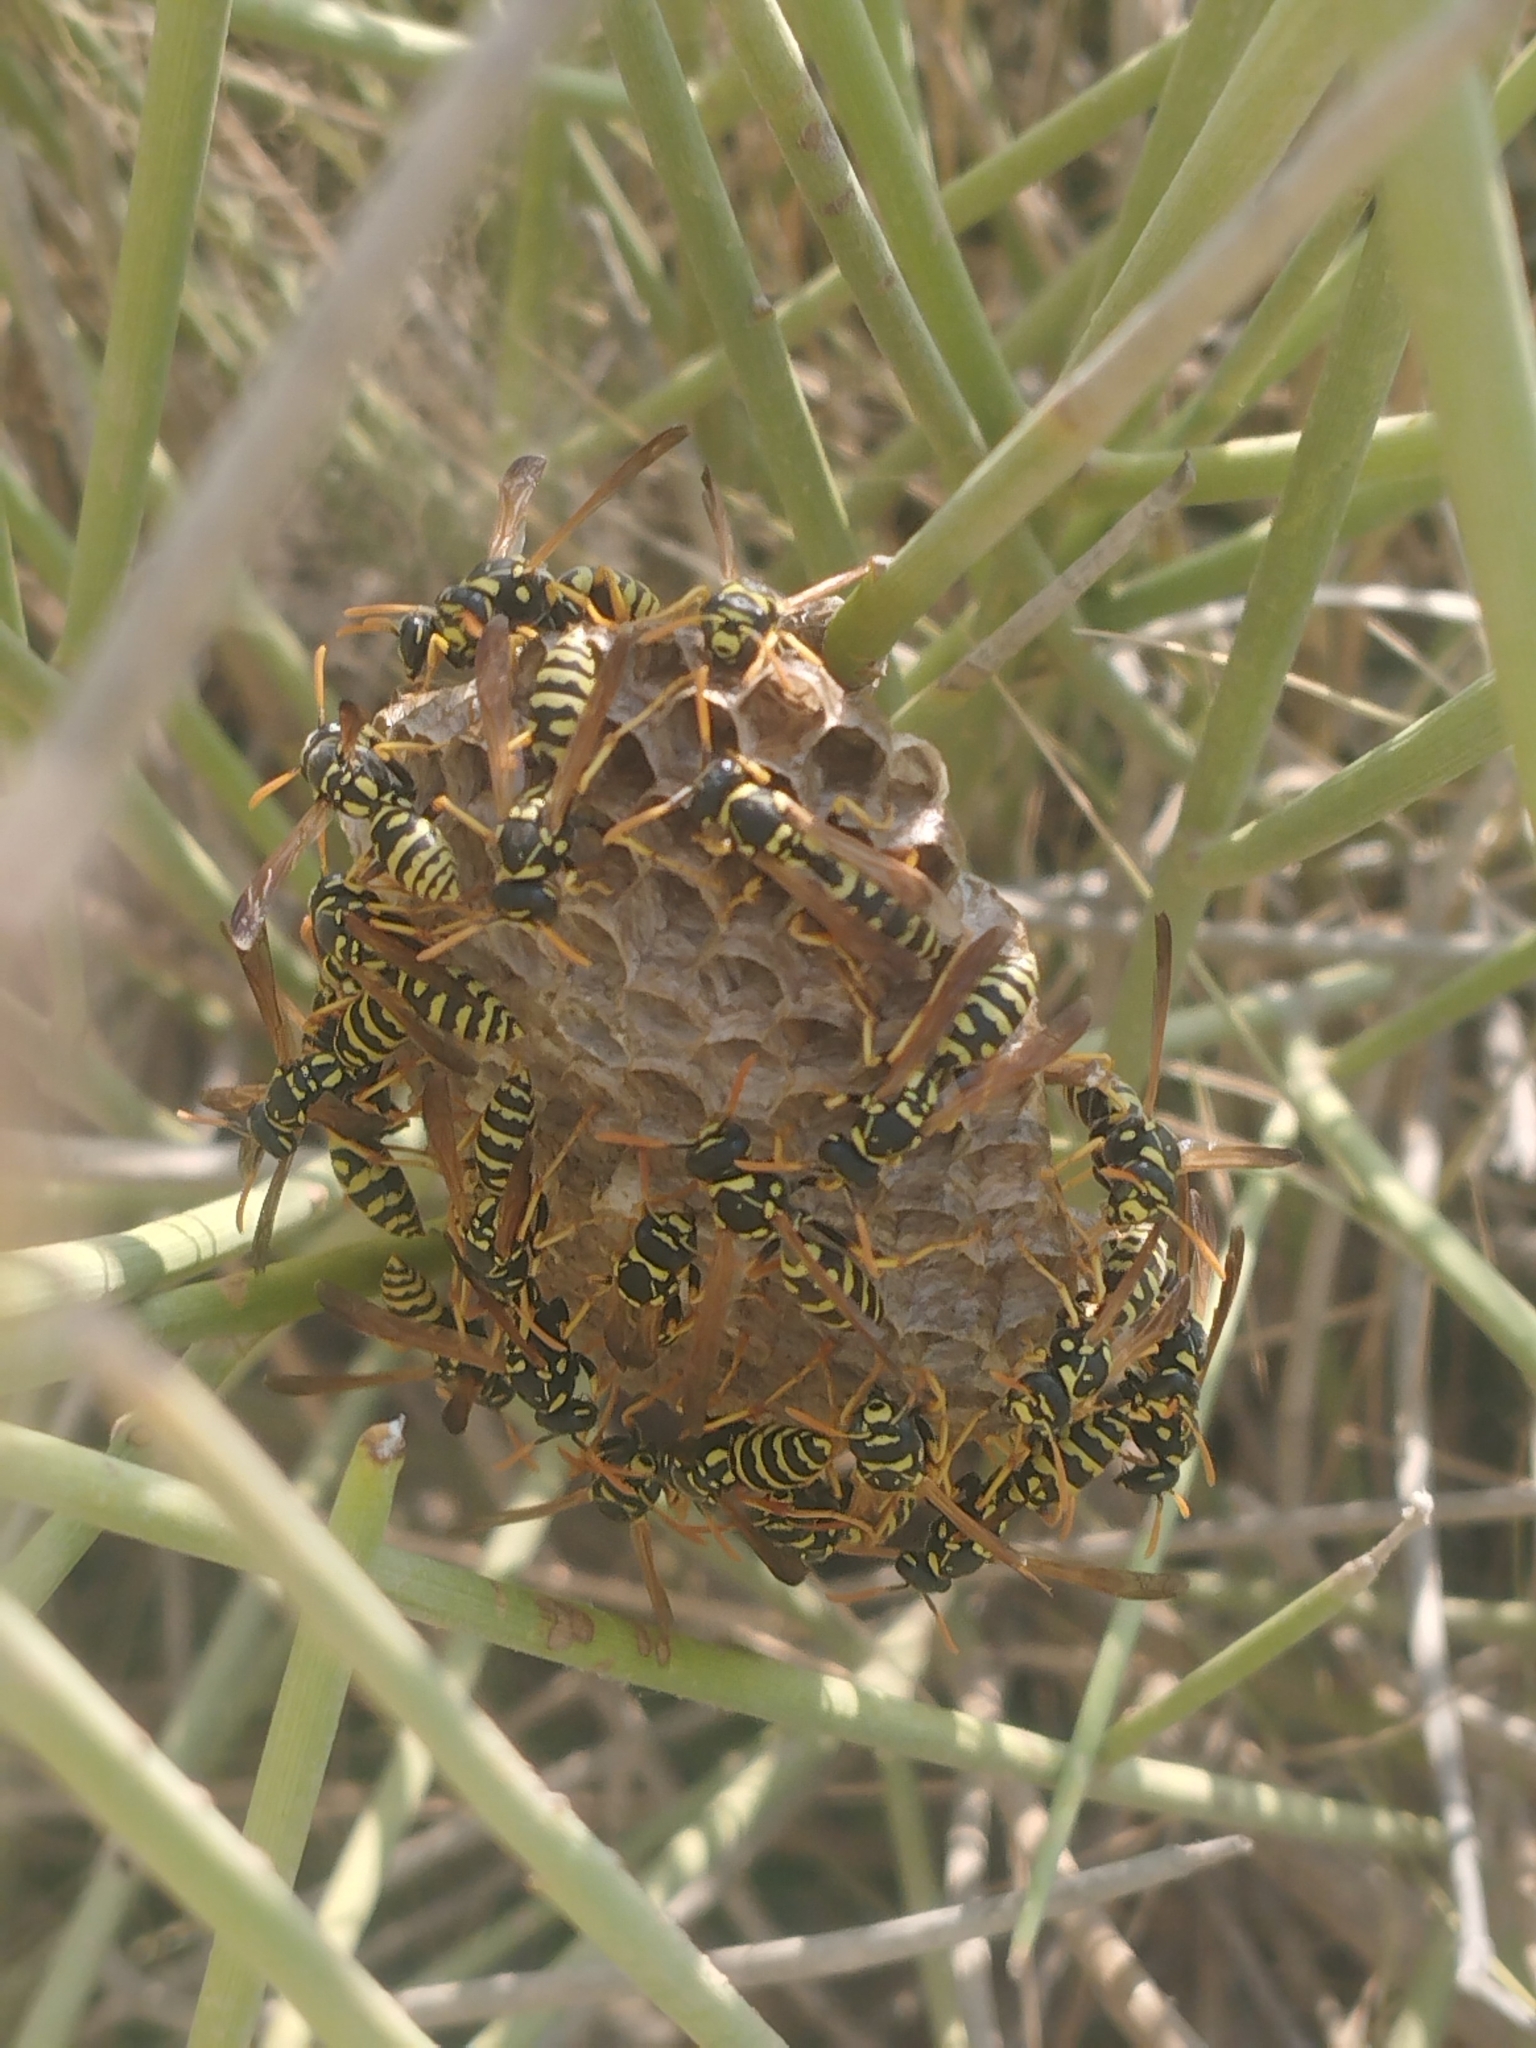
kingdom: Animalia
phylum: Arthropoda
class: Insecta
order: Hymenoptera
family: Eumenidae
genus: Polistes
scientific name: Polistes gallicus
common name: Paper wasp
